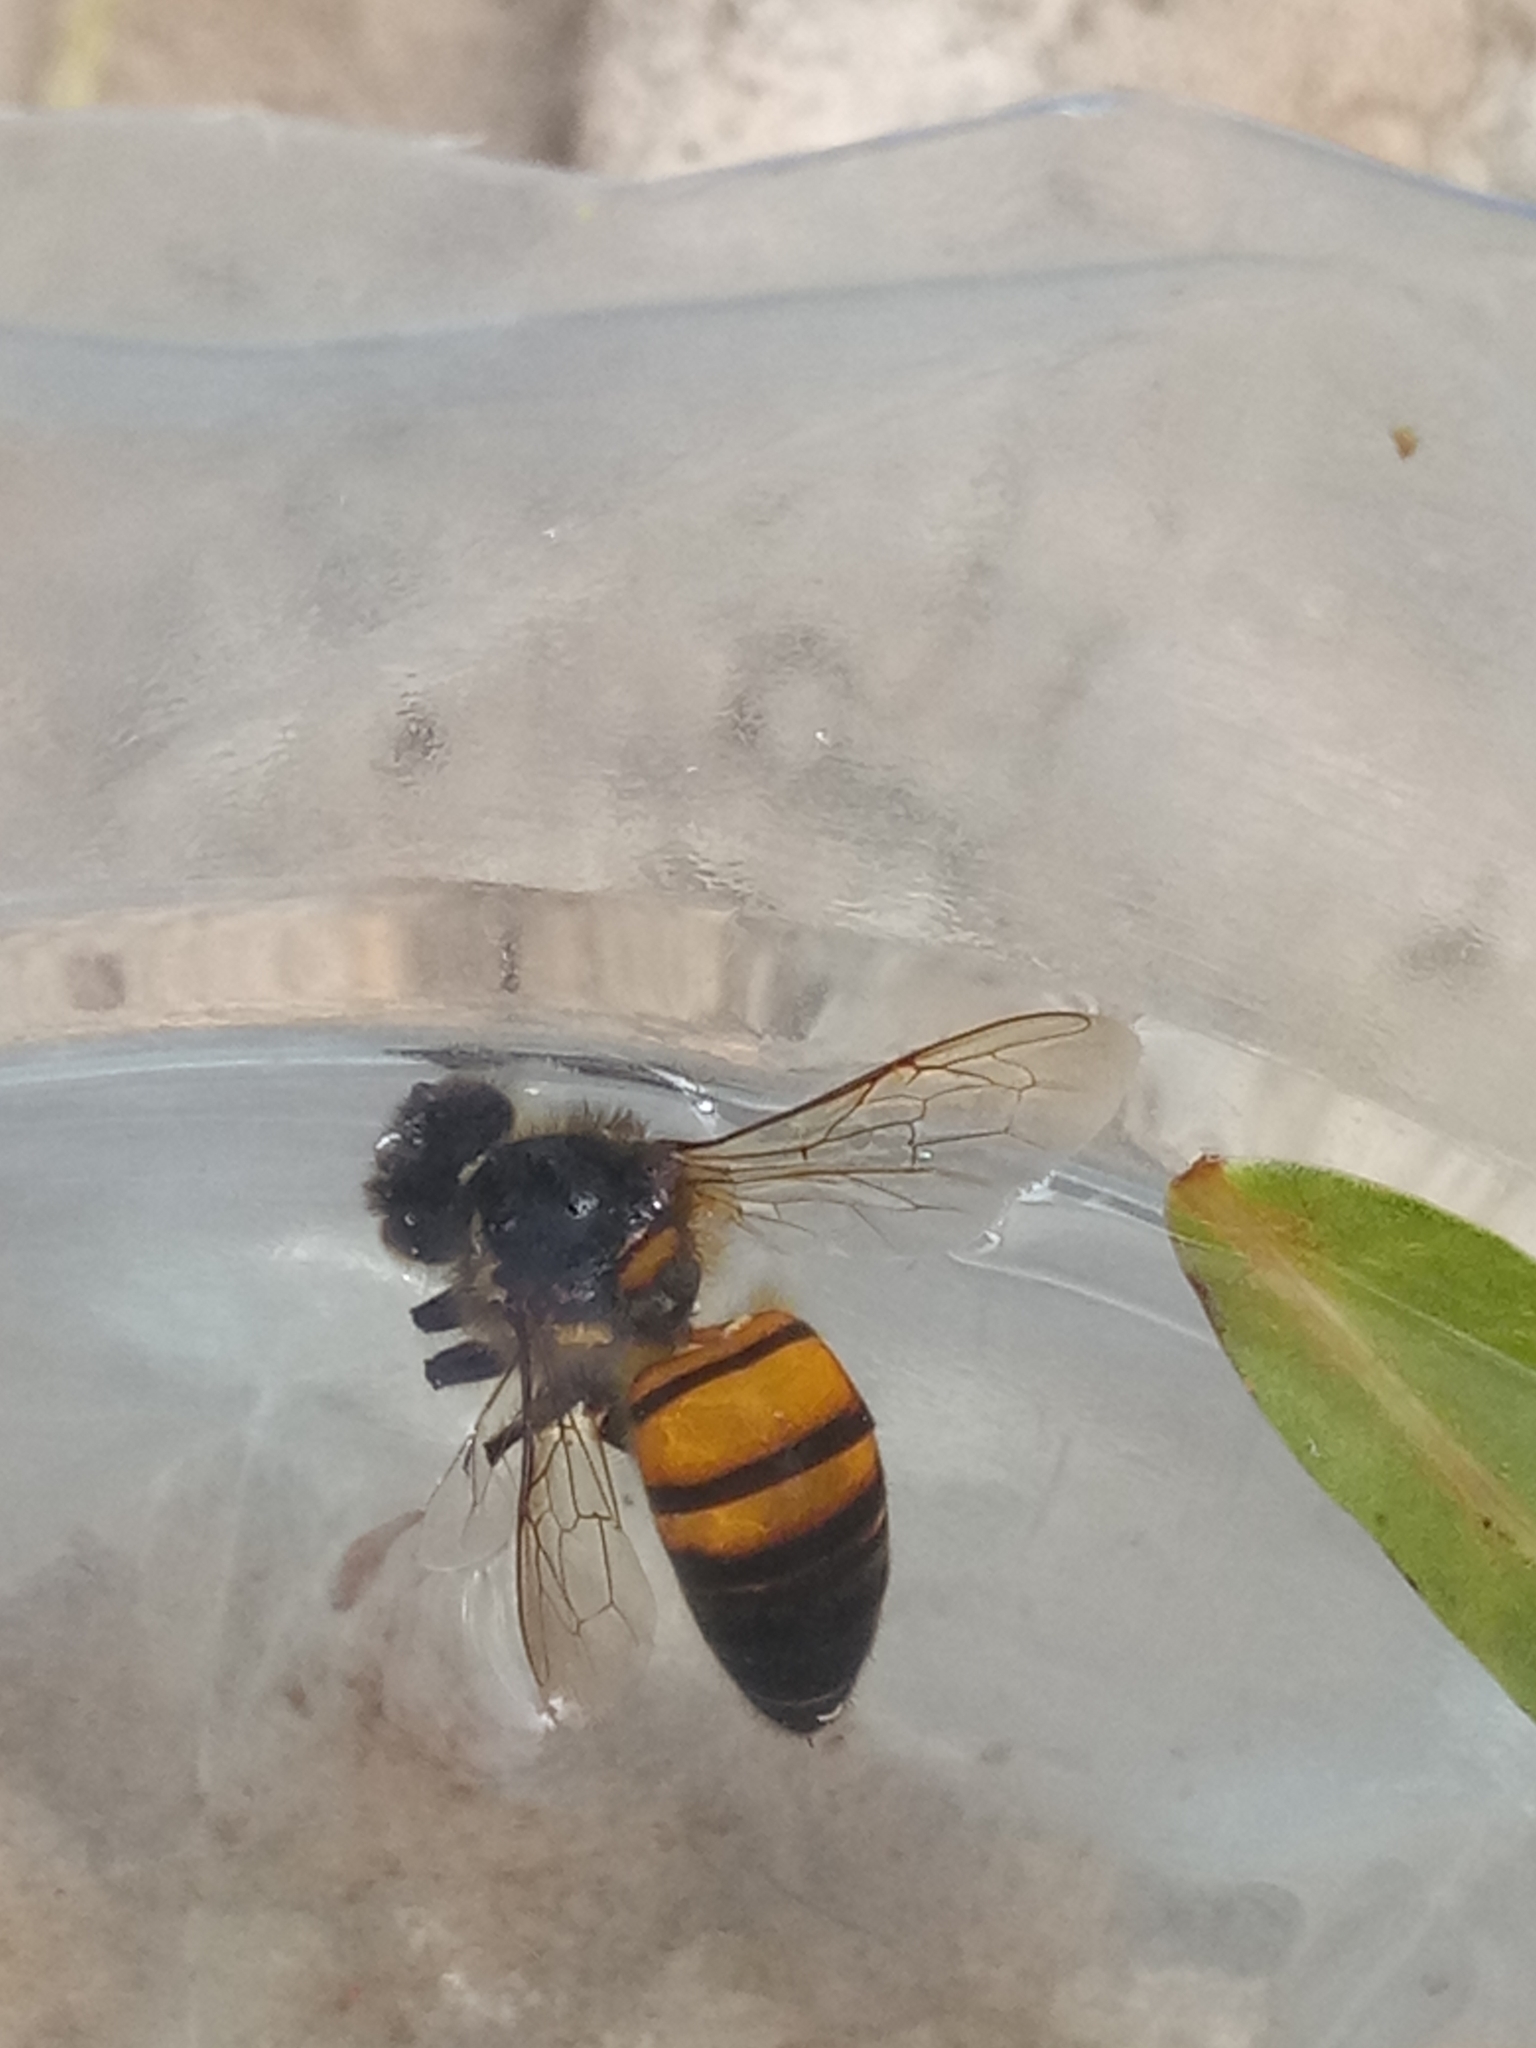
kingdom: Animalia
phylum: Arthropoda
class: Insecta
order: Hymenoptera
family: Apidae
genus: Apis
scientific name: Apis mellifera
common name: Honey bee
